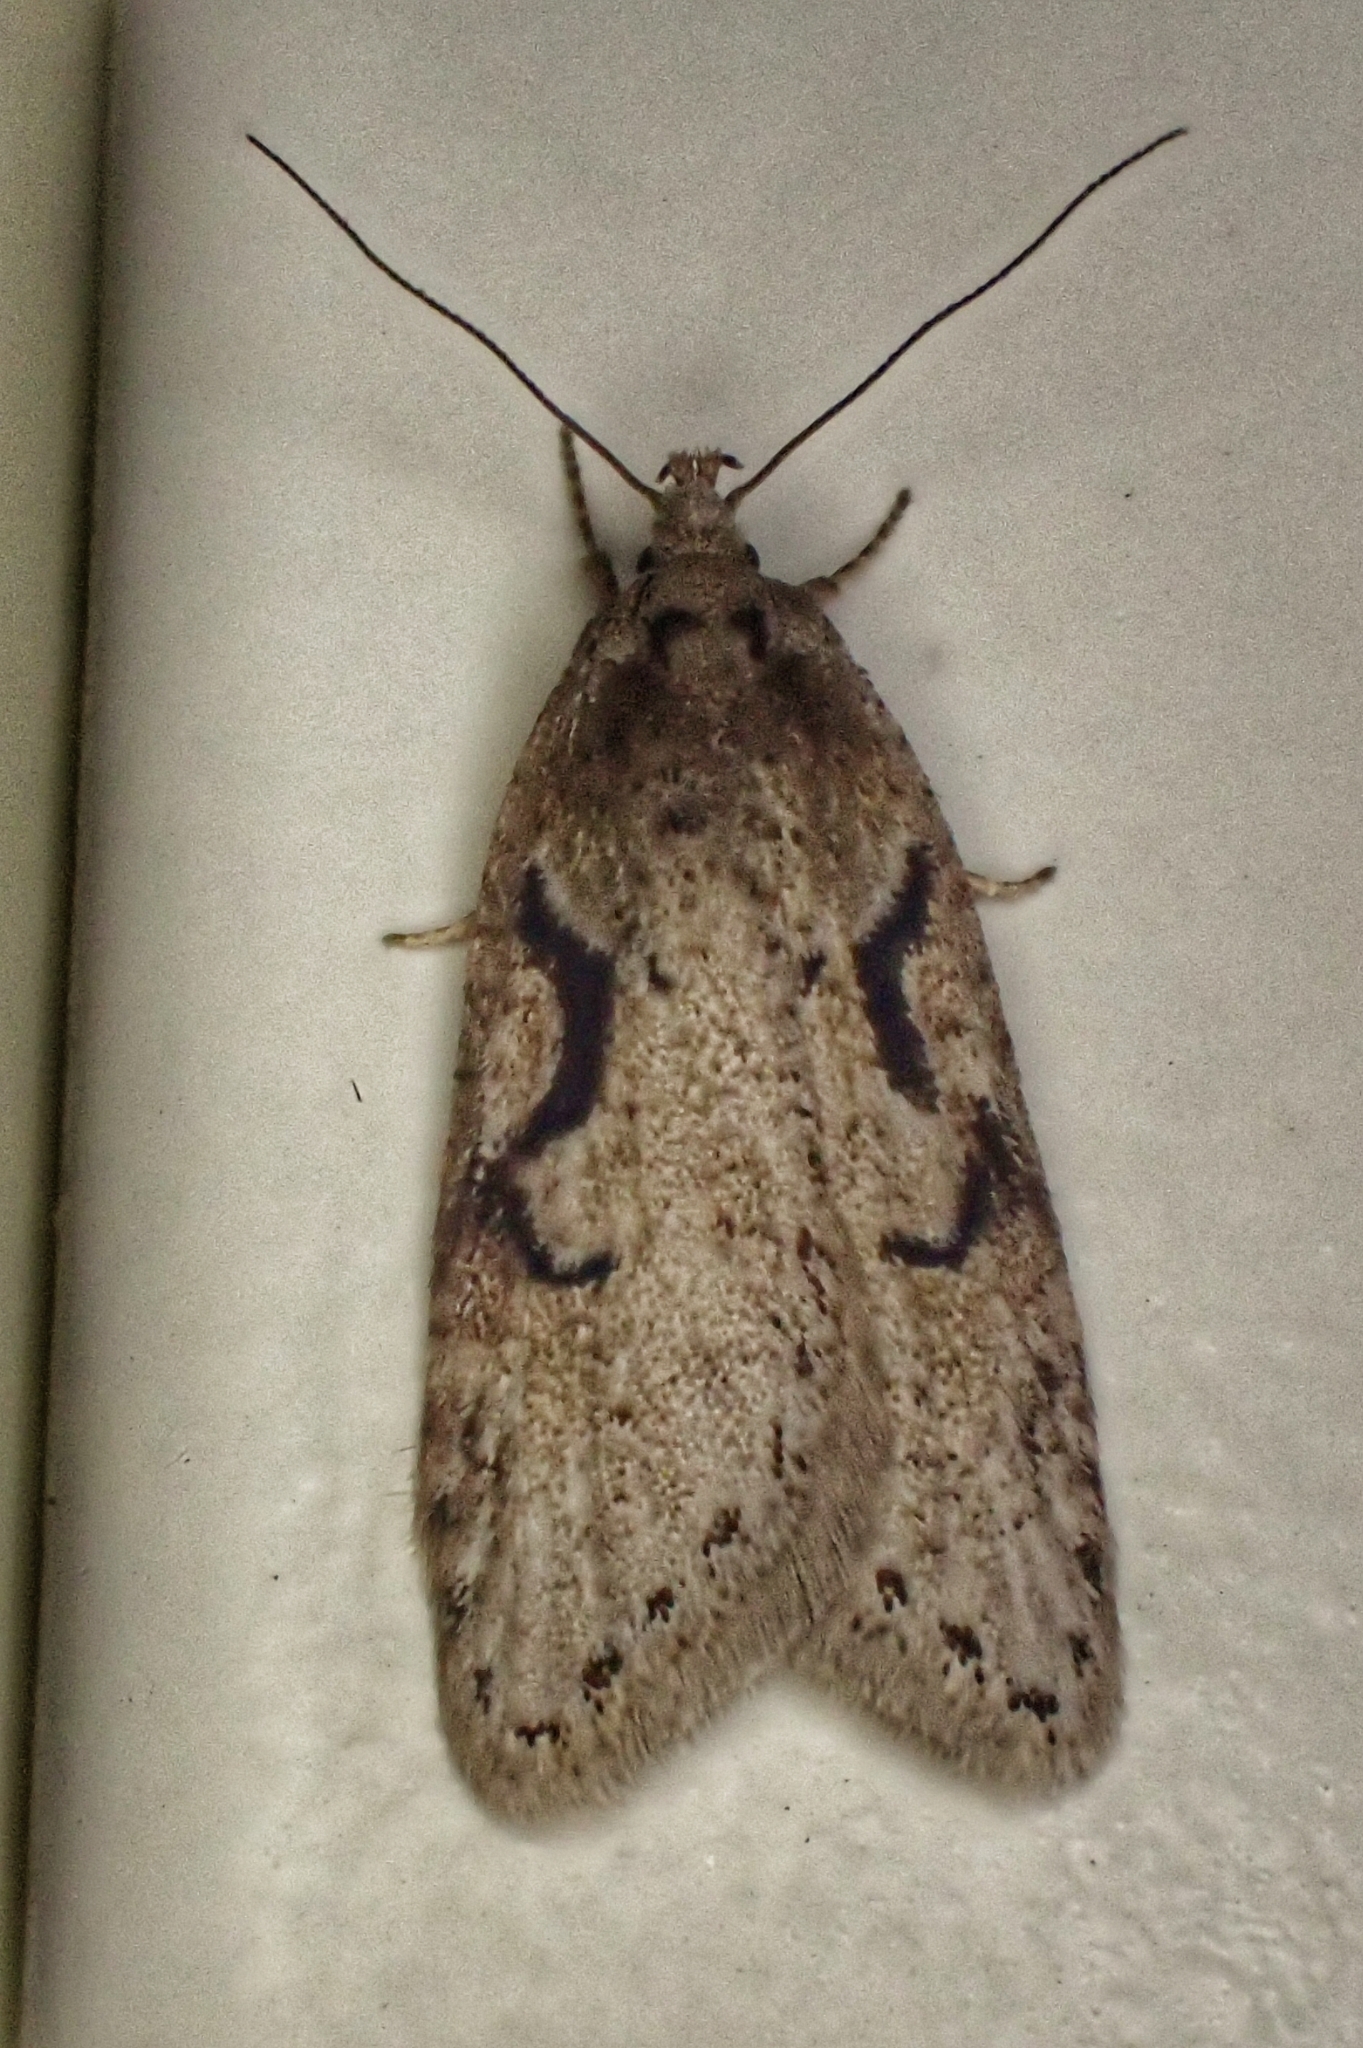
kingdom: Animalia
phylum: Arthropoda
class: Insecta
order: Lepidoptera
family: Depressariidae
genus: Semioscopis
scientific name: Semioscopis steinkellneriana
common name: Dawn flat-body
